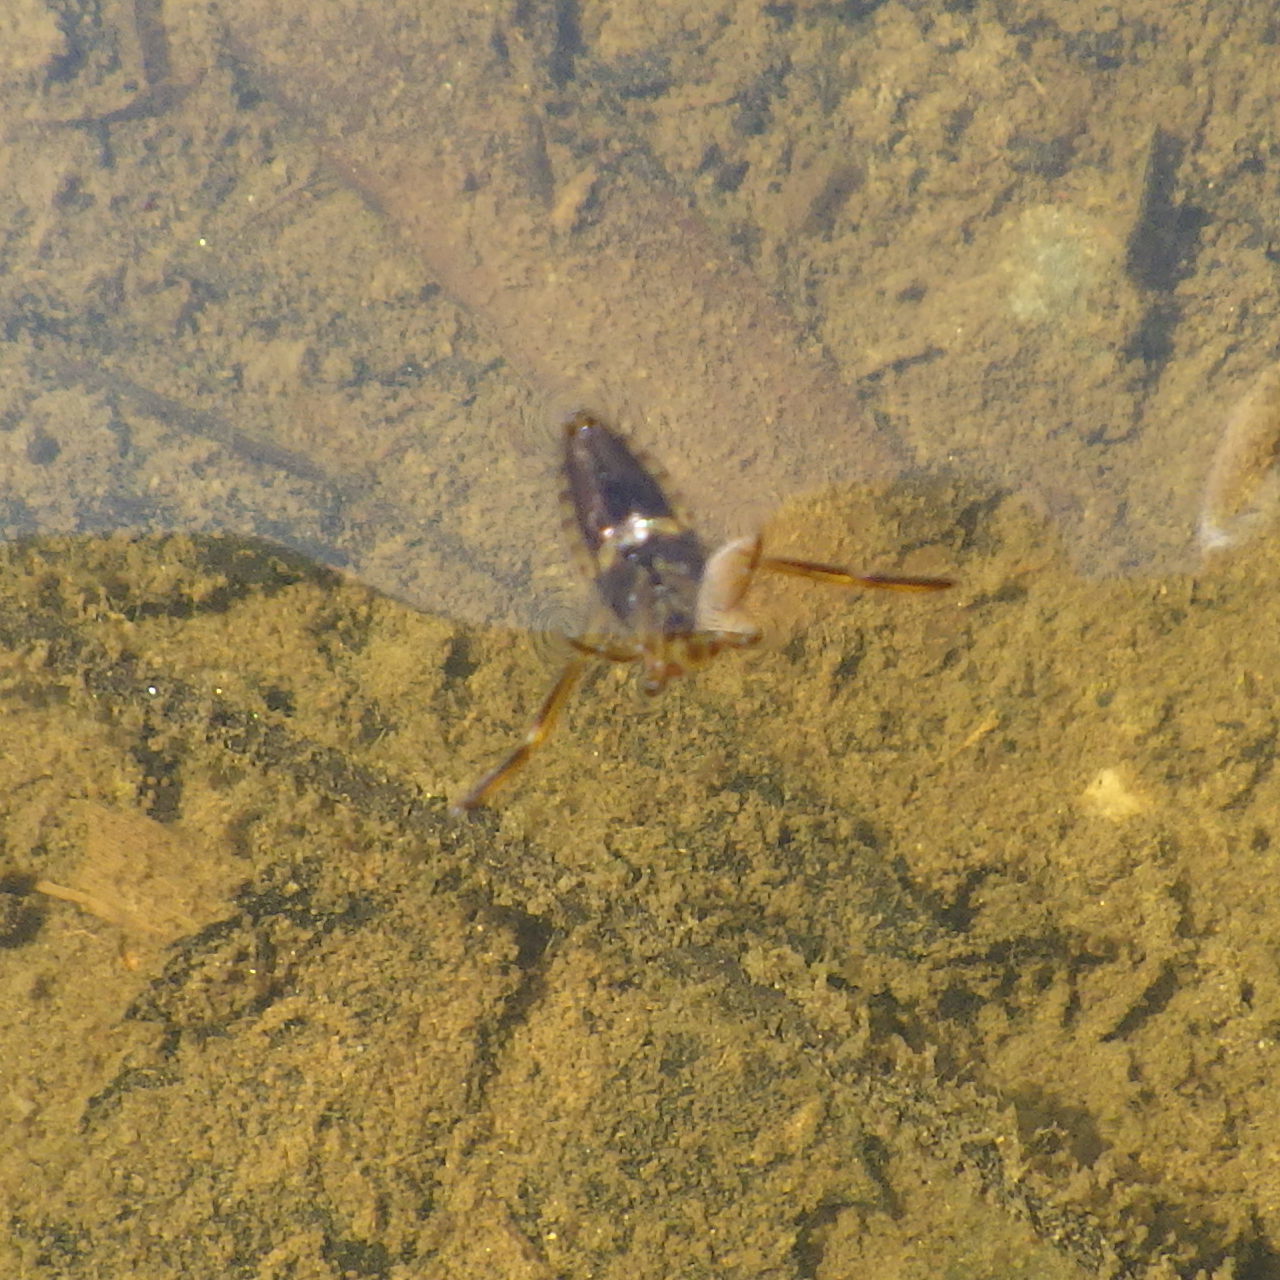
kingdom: Animalia
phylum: Arthropoda
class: Insecta
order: Hemiptera
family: Notonectidae
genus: Notonecta
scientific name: Notonecta
